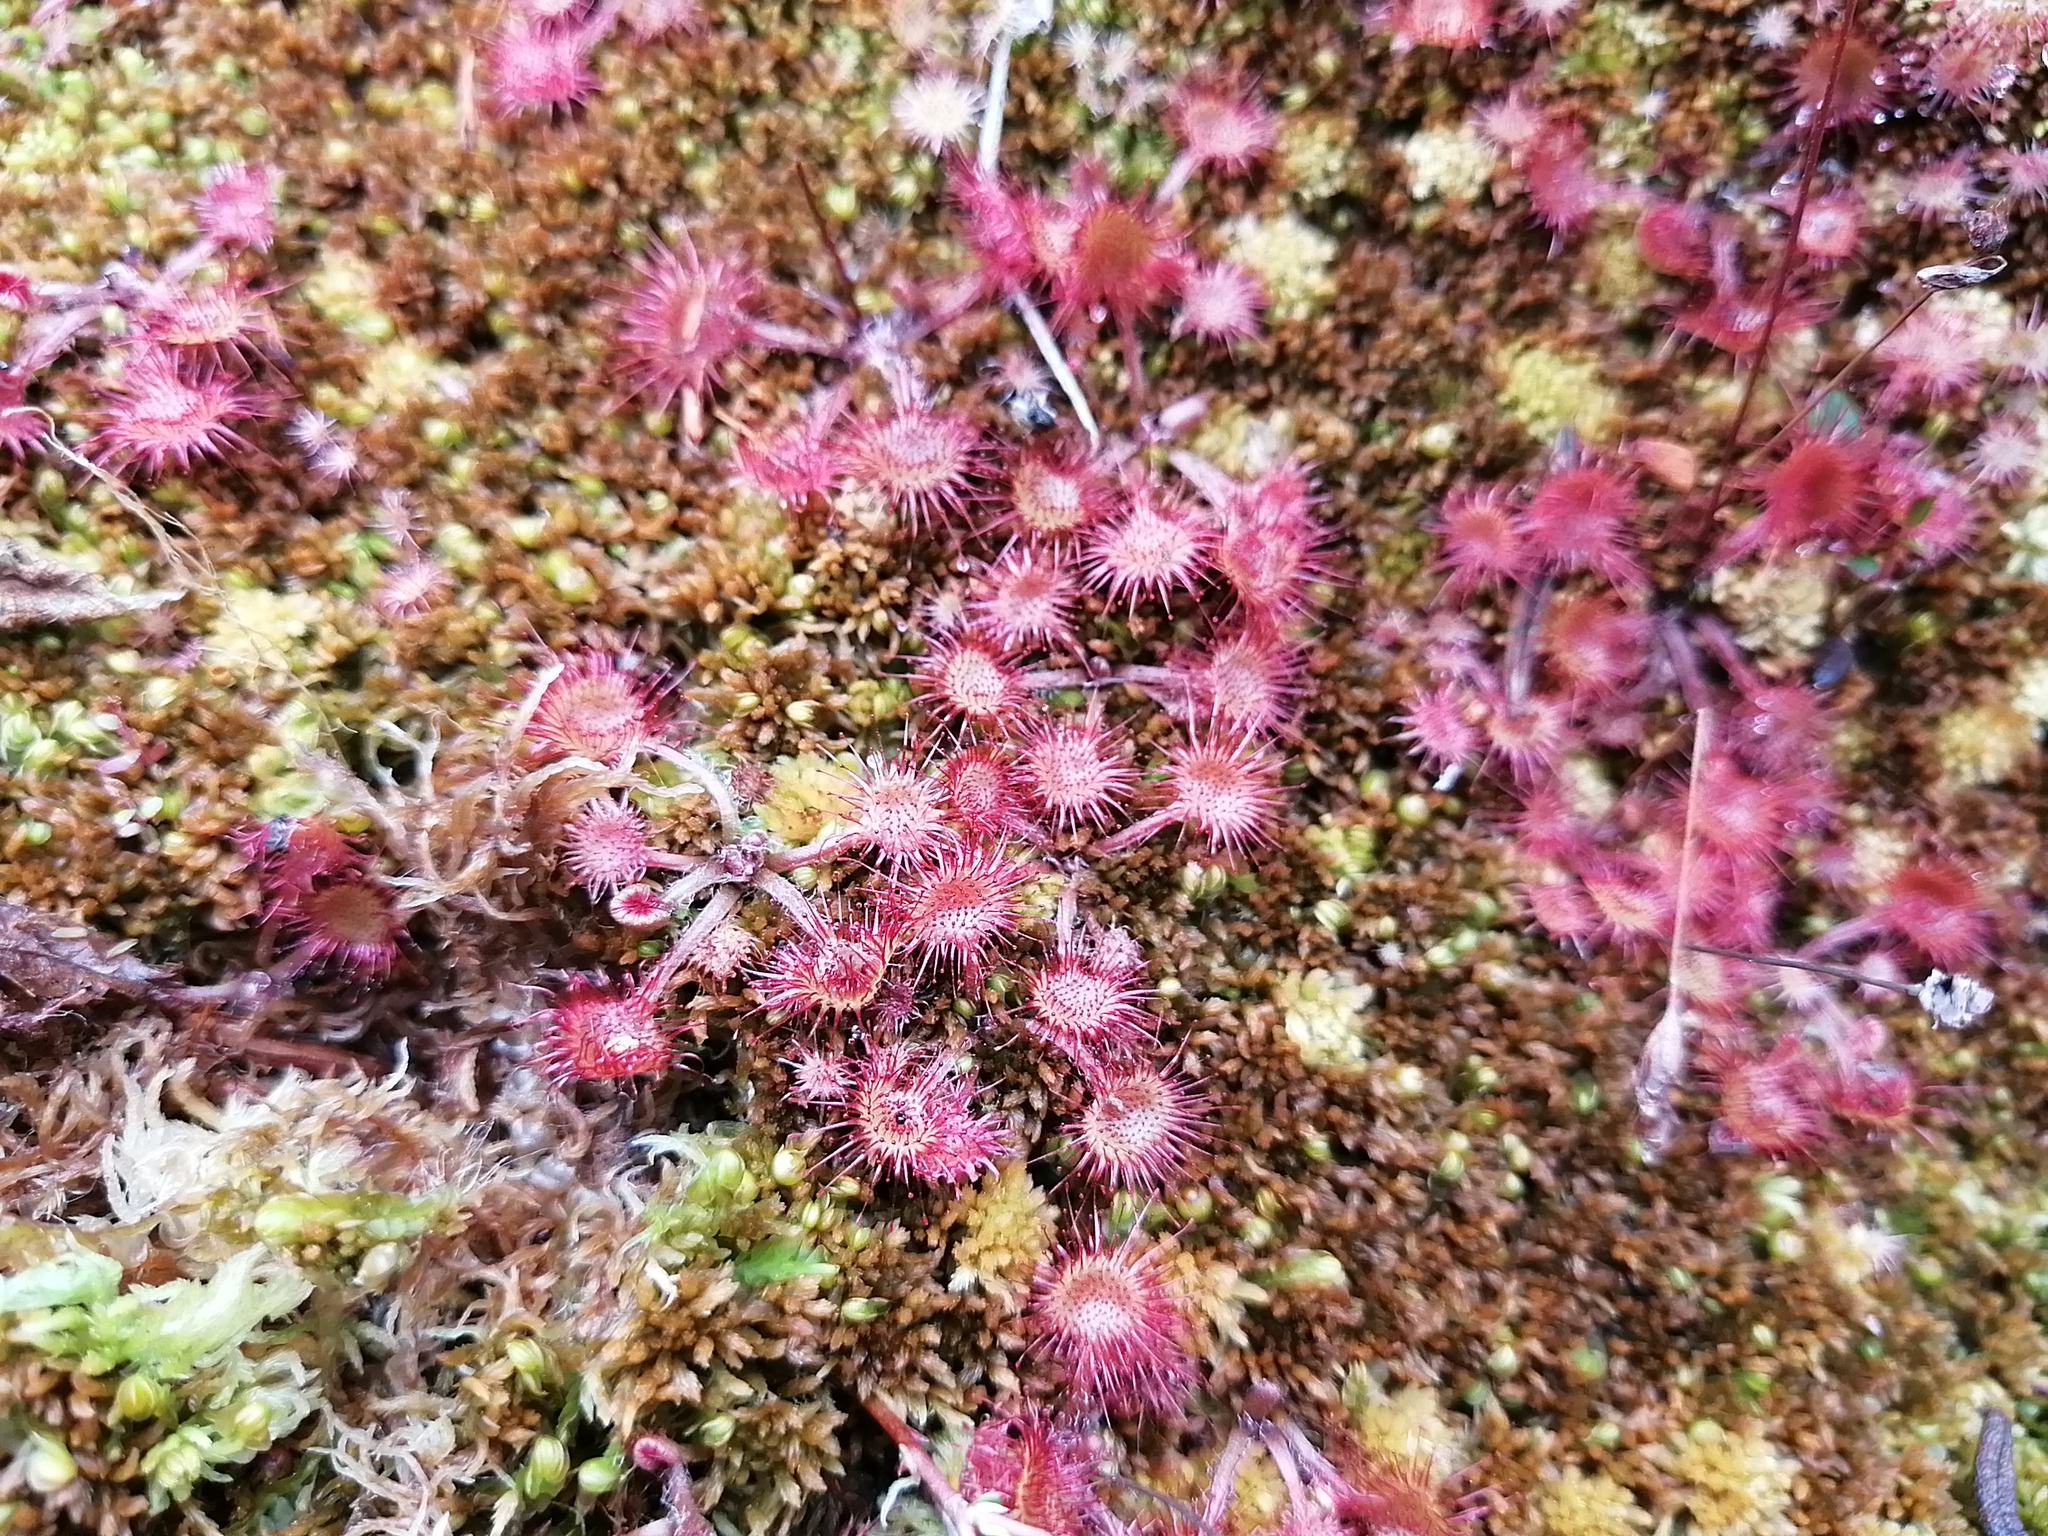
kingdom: Plantae
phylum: Tracheophyta
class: Magnoliopsida
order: Caryophyllales
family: Droseraceae
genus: Drosera
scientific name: Drosera rotundifolia
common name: Round-leaved sundew
